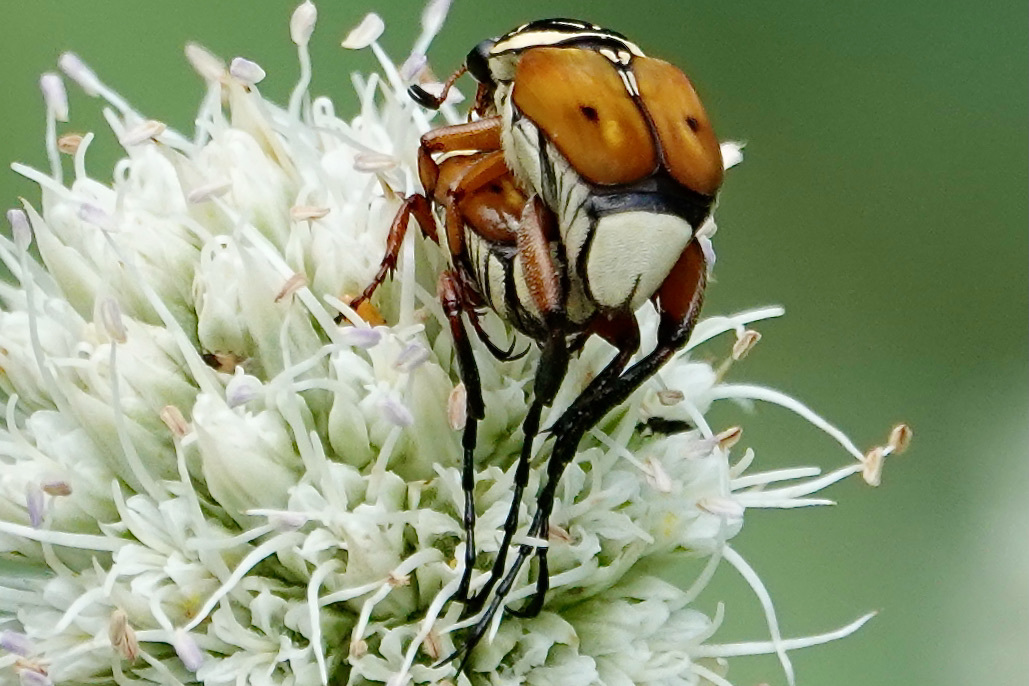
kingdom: Animalia
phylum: Arthropoda
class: Insecta
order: Coleoptera
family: Scarabaeidae
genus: Trigonopeltastes
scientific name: Trigonopeltastes delta
